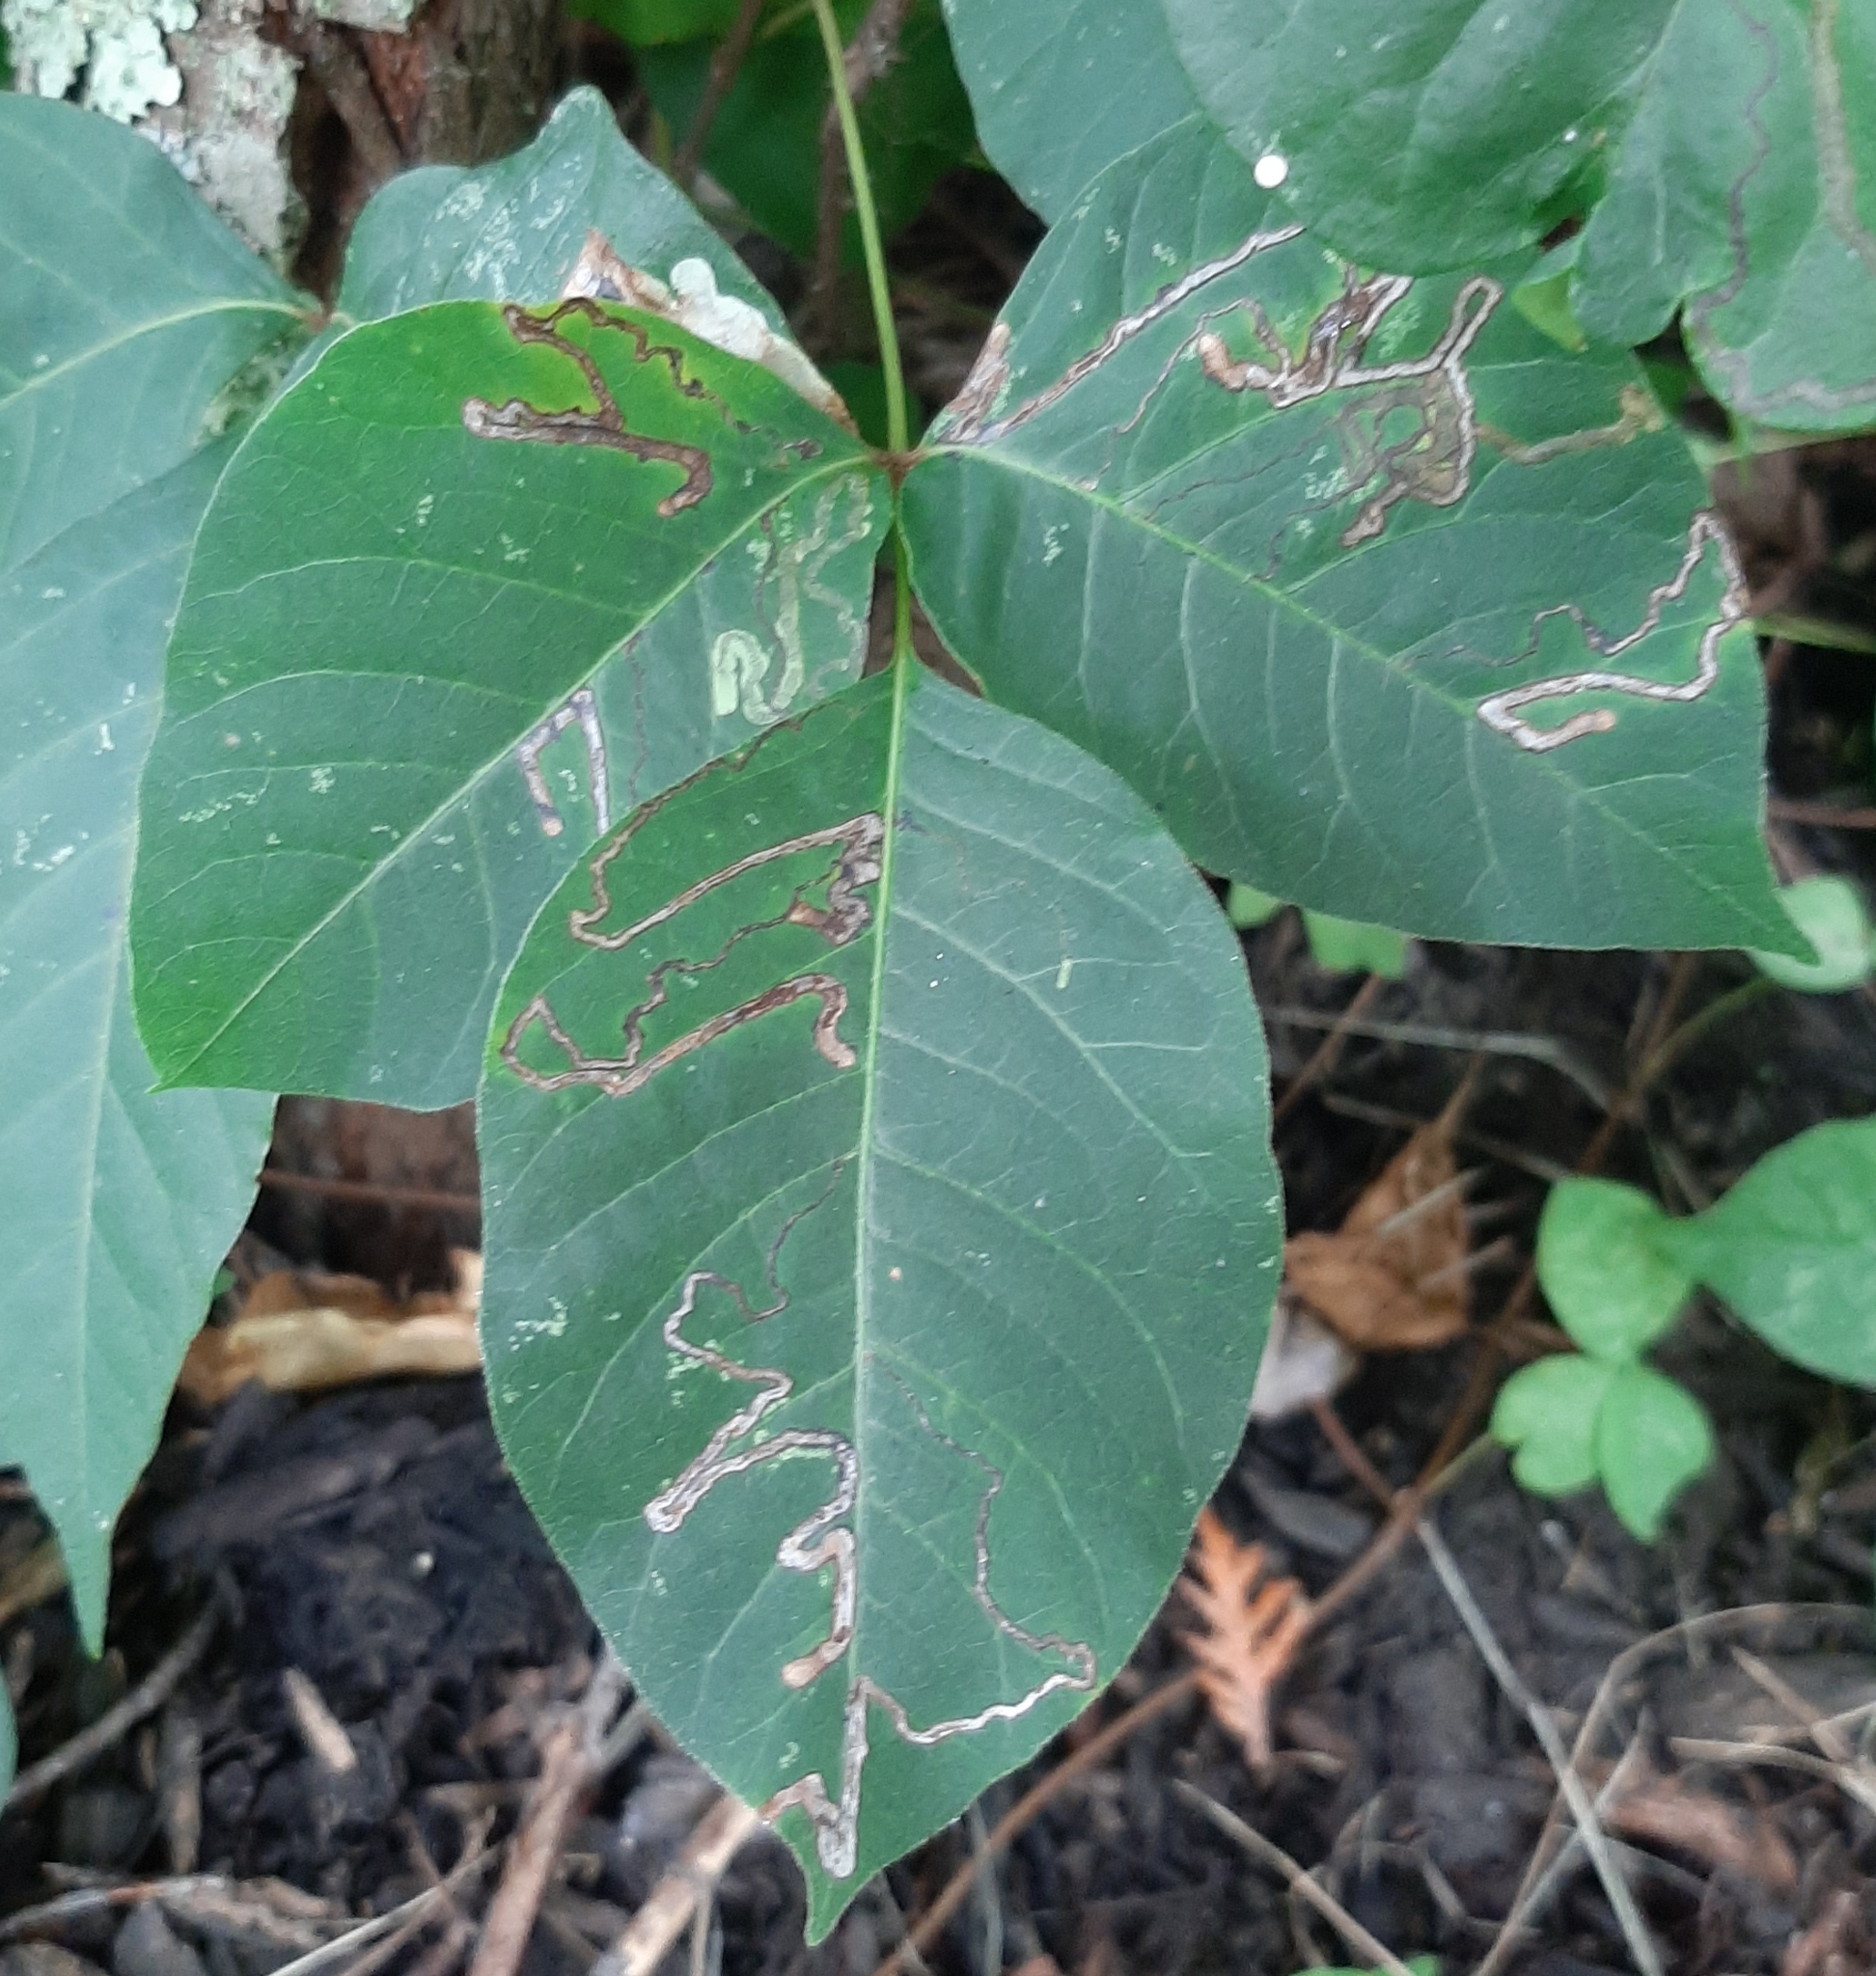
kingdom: Animalia
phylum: Arthropoda
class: Insecta
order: Lepidoptera
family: Nepticulidae
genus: Stigmella
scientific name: Stigmella rhoifoliella
